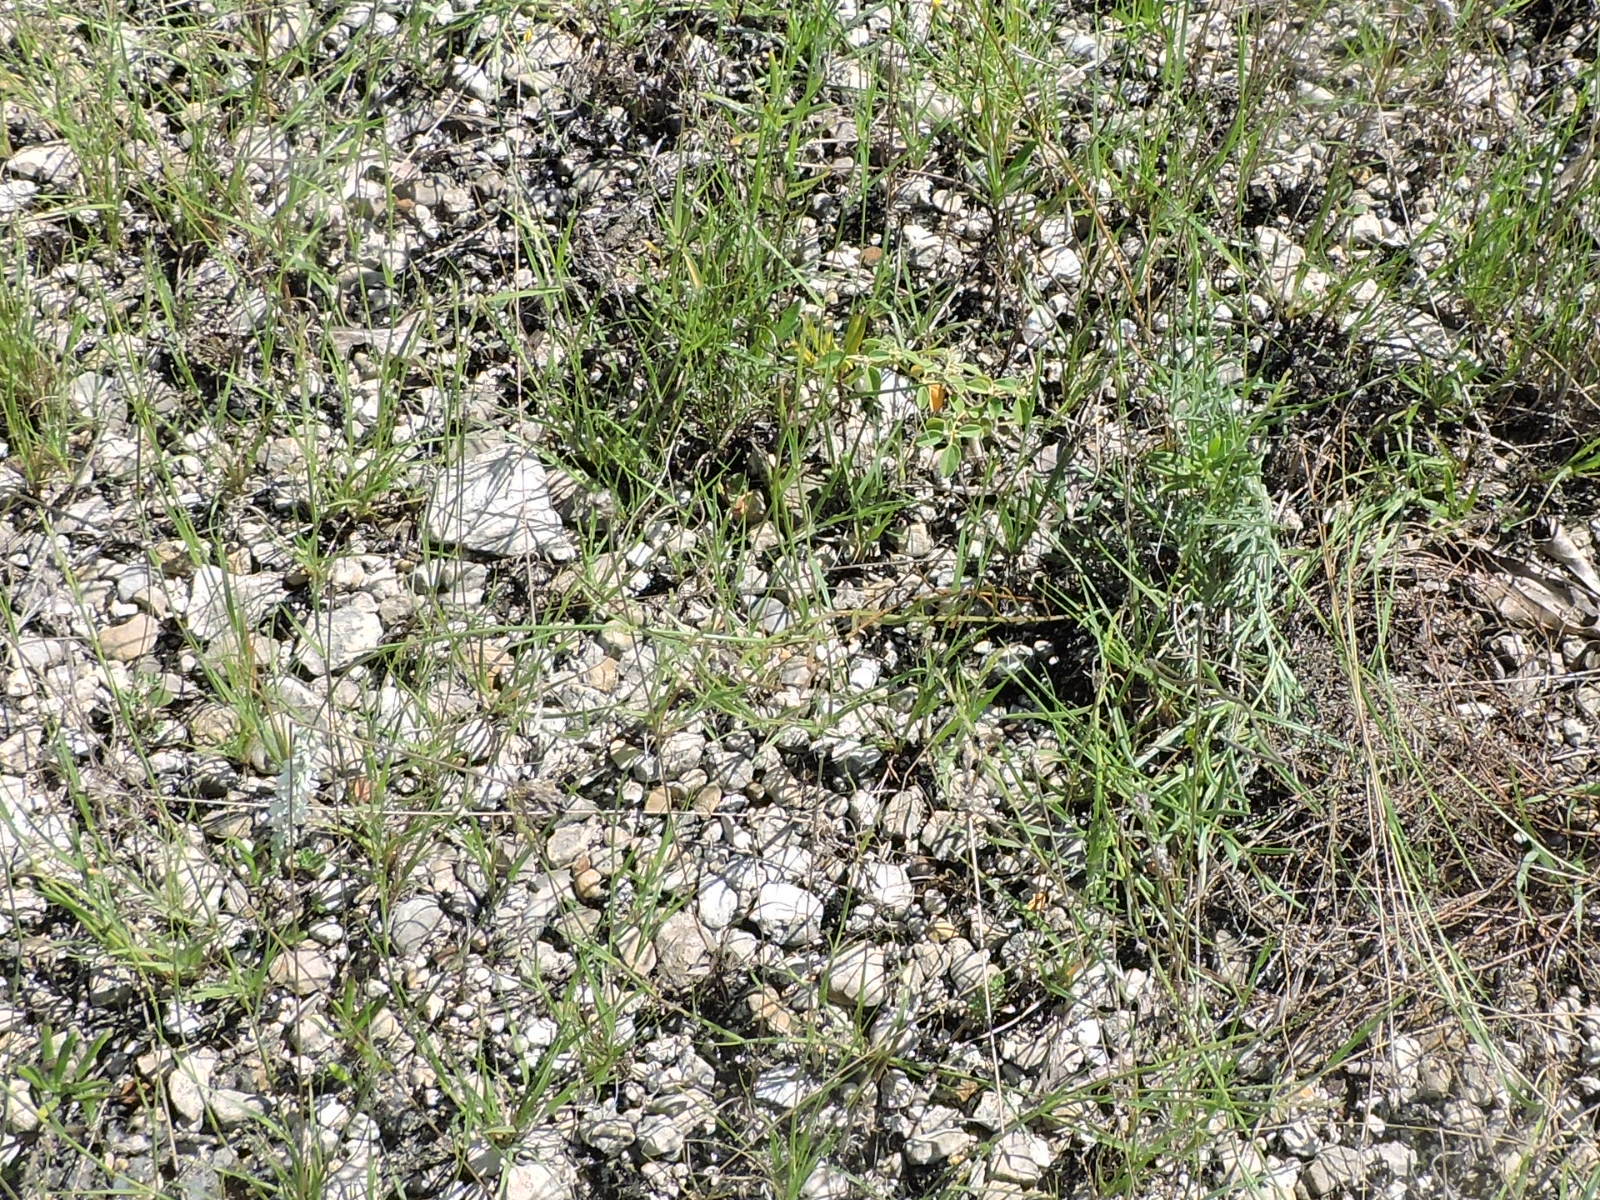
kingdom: Plantae
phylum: Tracheophyta
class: Magnoliopsida
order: Fabales
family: Polygalaceae
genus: Polygala
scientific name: Polygala alba
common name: White milkwort
